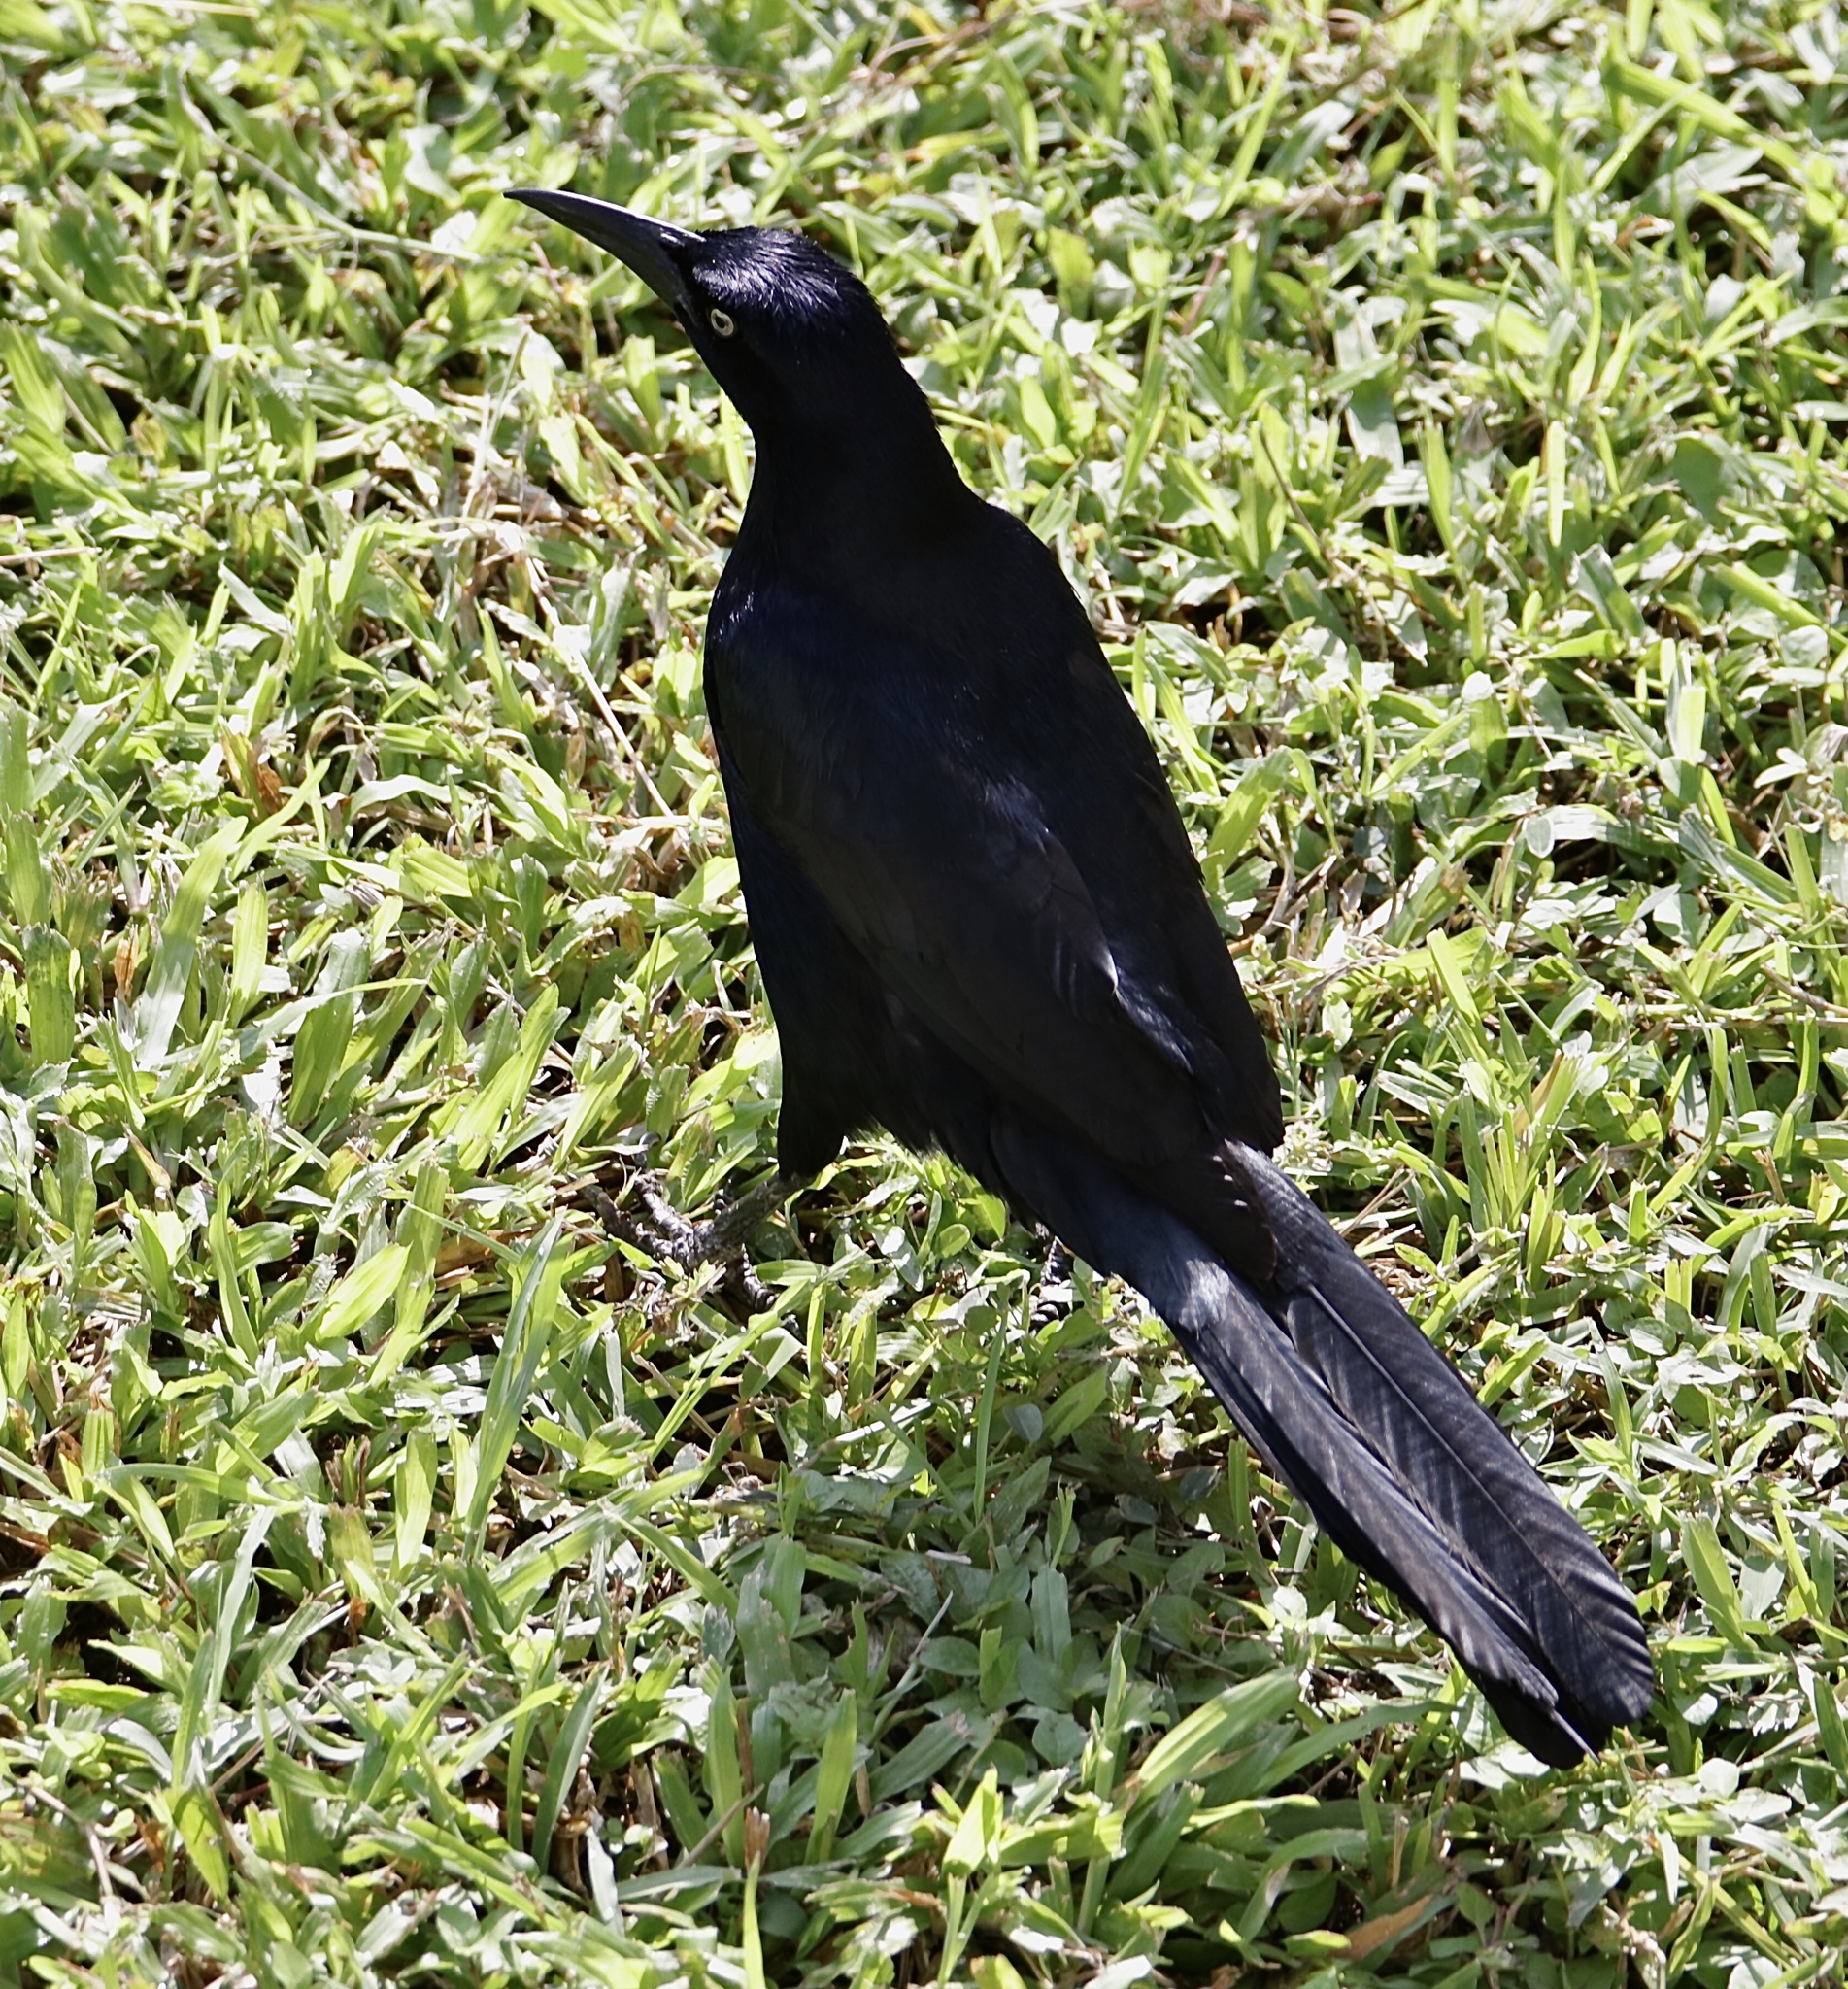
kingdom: Animalia
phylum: Chordata
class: Aves
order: Passeriformes
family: Icteridae
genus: Quiscalus
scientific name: Quiscalus mexicanus
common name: Great-tailed grackle
